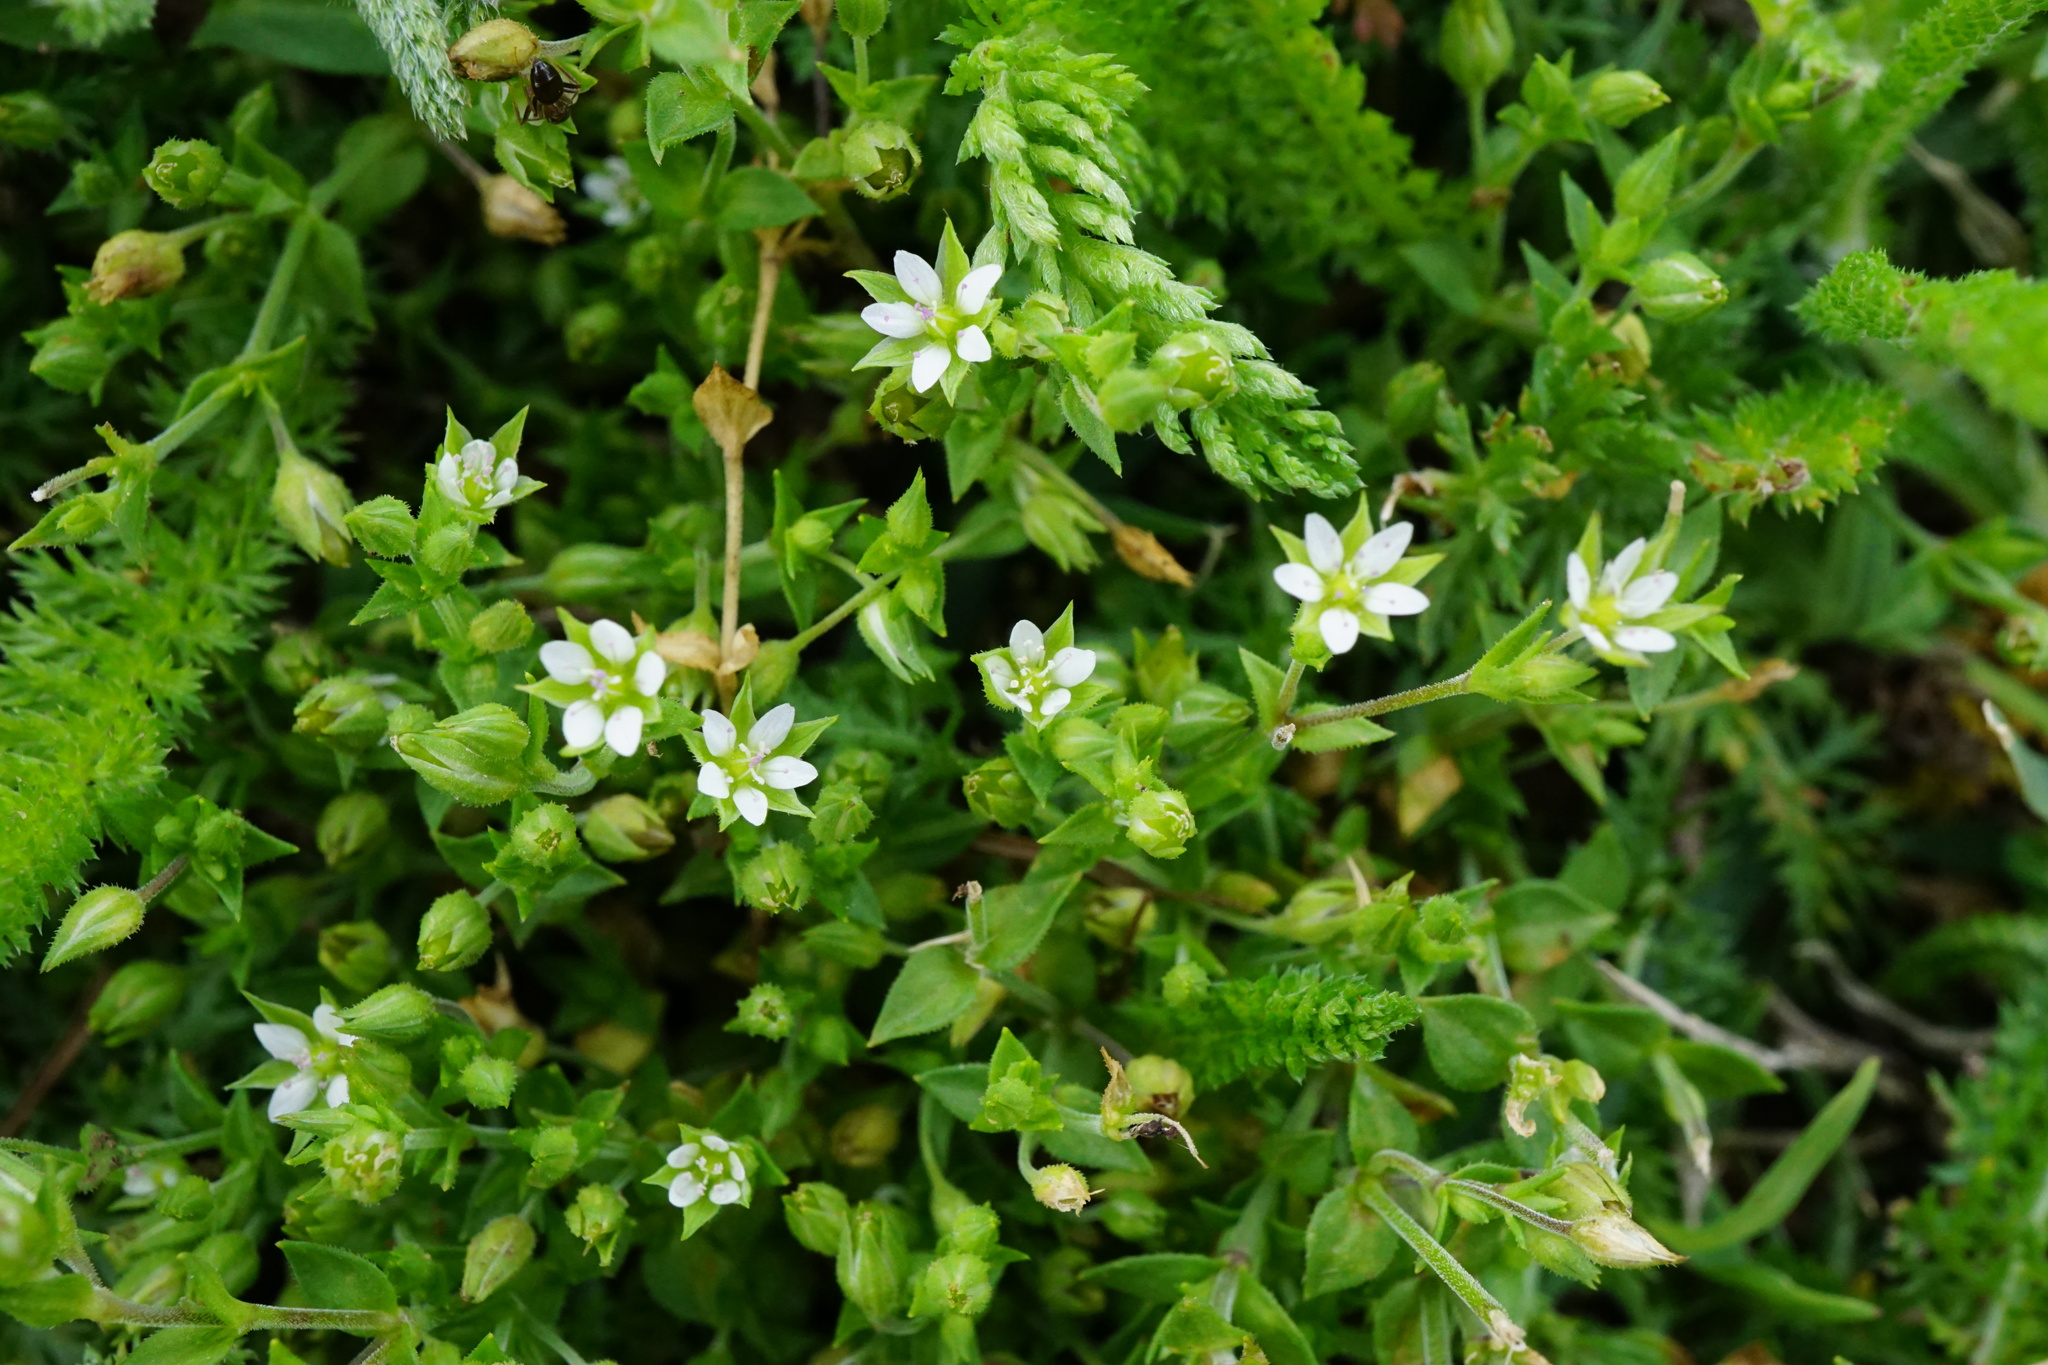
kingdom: Plantae
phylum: Tracheophyta
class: Magnoliopsida
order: Caryophyllales
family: Caryophyllaceae
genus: Arenaria
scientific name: Arenaria serpyllifolia
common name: Thyme-leaved sandwort
